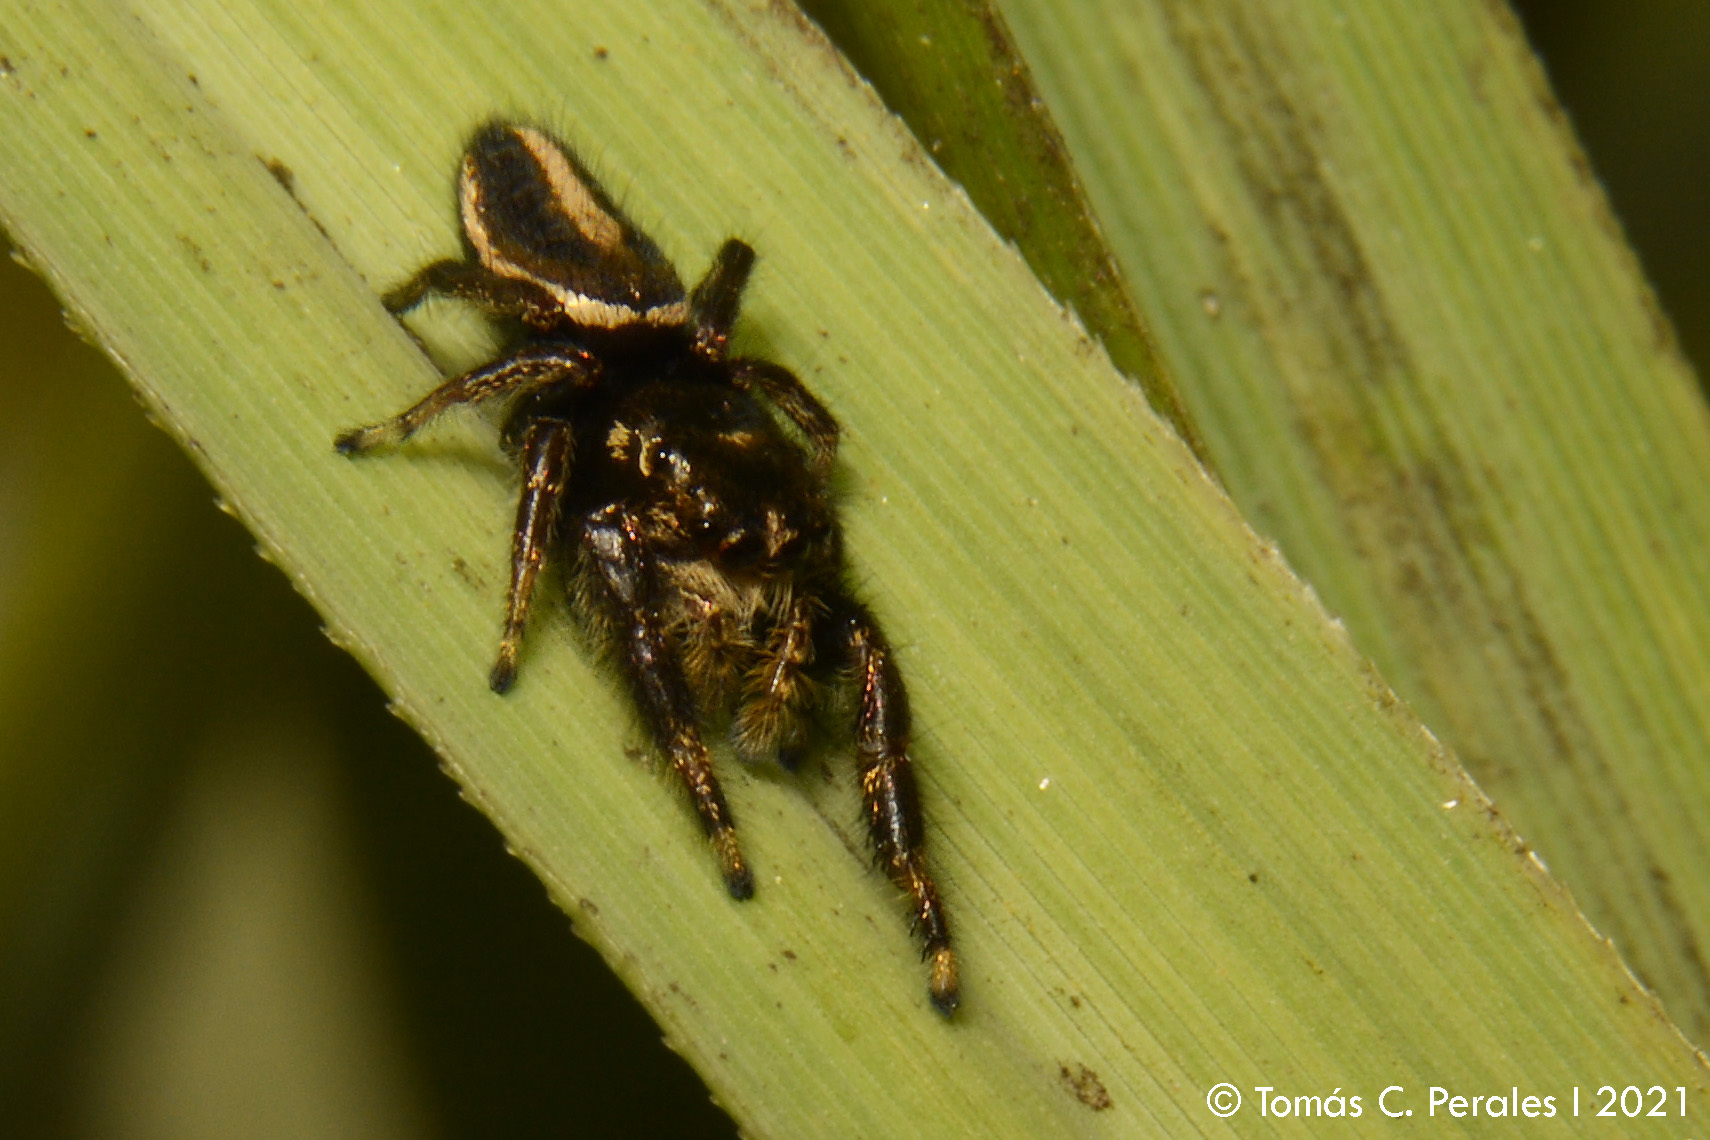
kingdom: Animalia
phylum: Arthropoda
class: Arachnida
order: Araneae
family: Salticidae
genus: Dendryphantes
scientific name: Dendryphantes mordax
